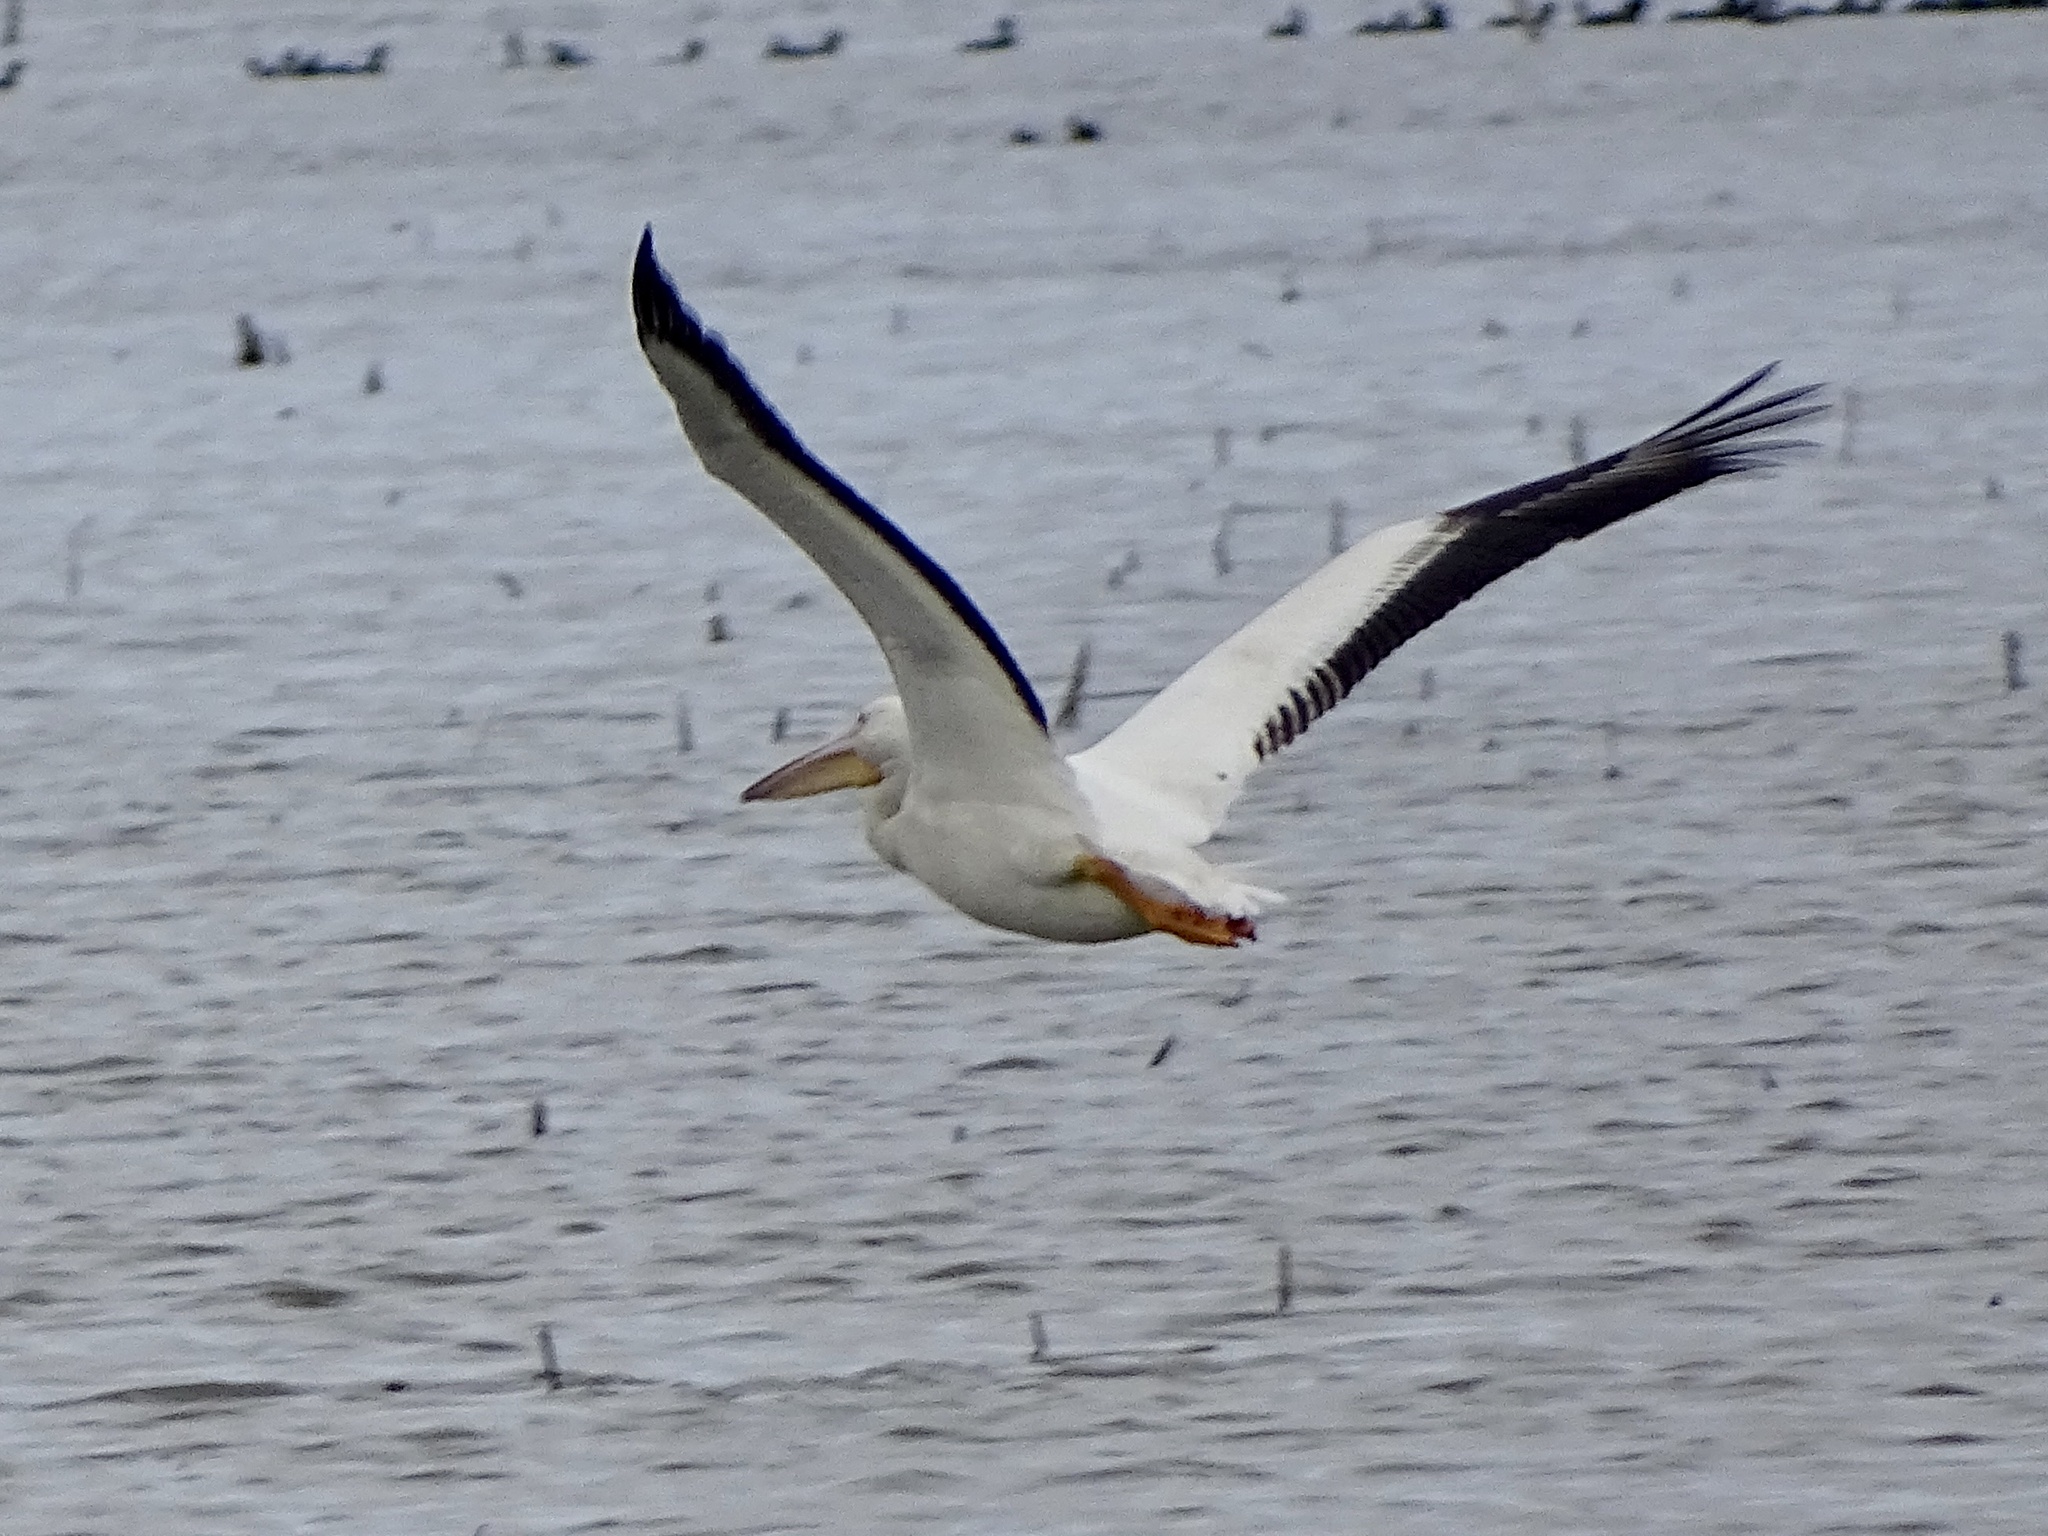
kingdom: Animalia
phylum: Chordata
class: Aves
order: Pelecaniformes
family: Pelecanidae
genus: Pelecanus
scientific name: Pelecanus erythrorhynchos
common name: American white pelican
